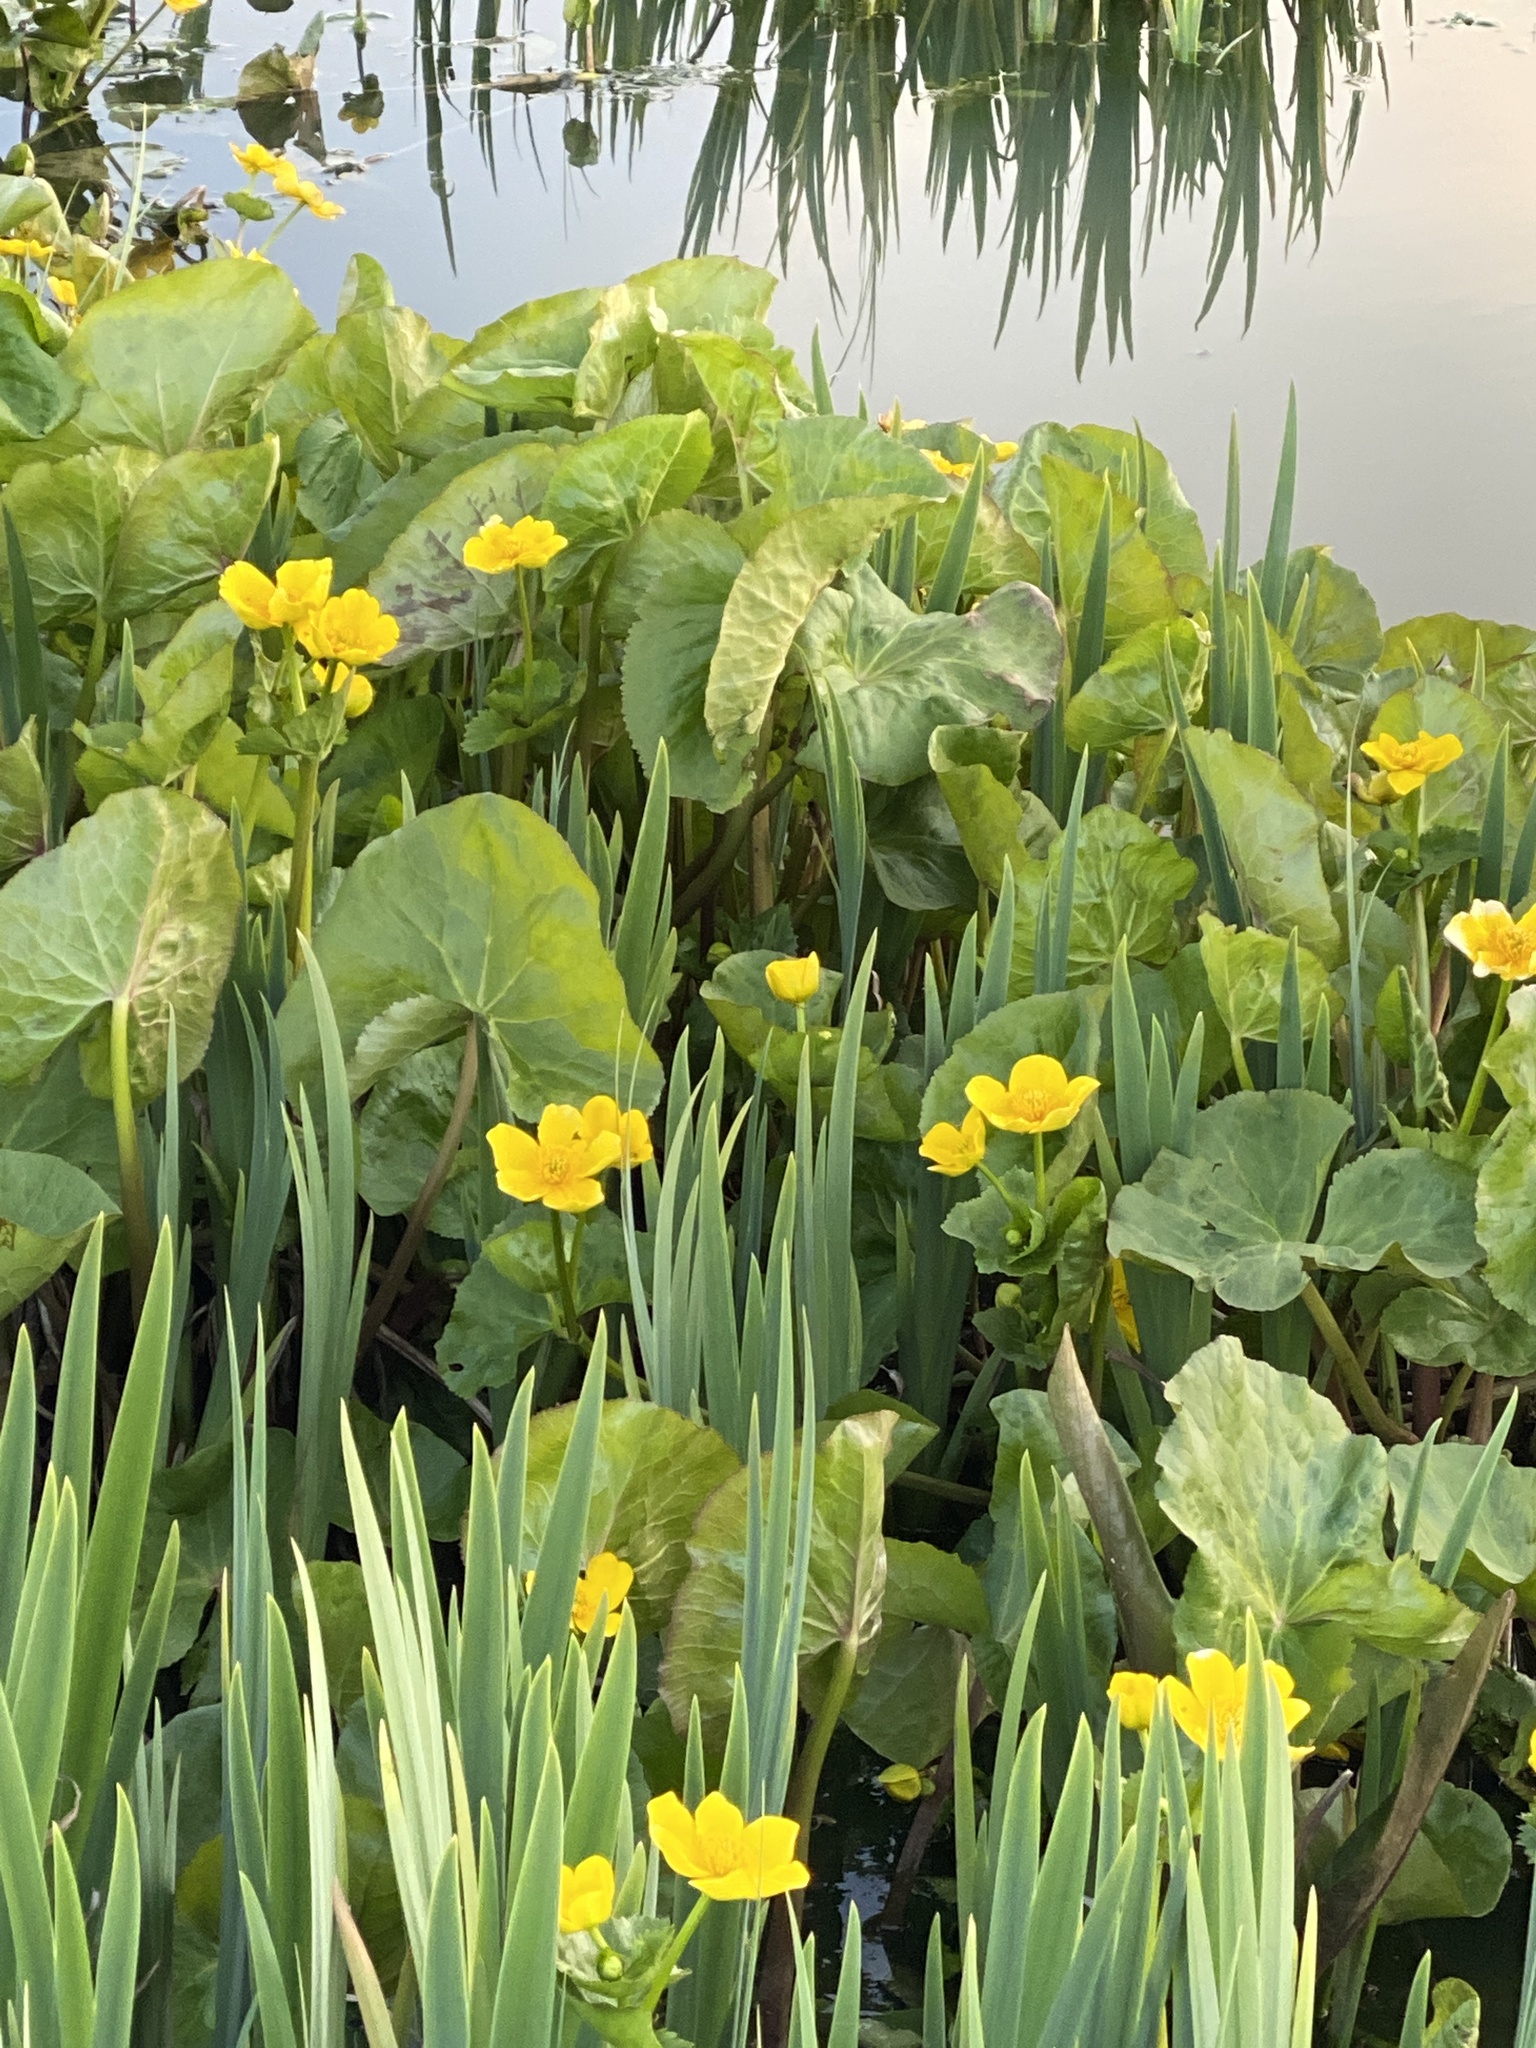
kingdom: Plantae
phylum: Tracheophyta
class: Magnoliopsida
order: Ranunculales
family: Ranunculaceae
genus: Caltha
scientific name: Caltha palustris
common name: Marsh marigold
